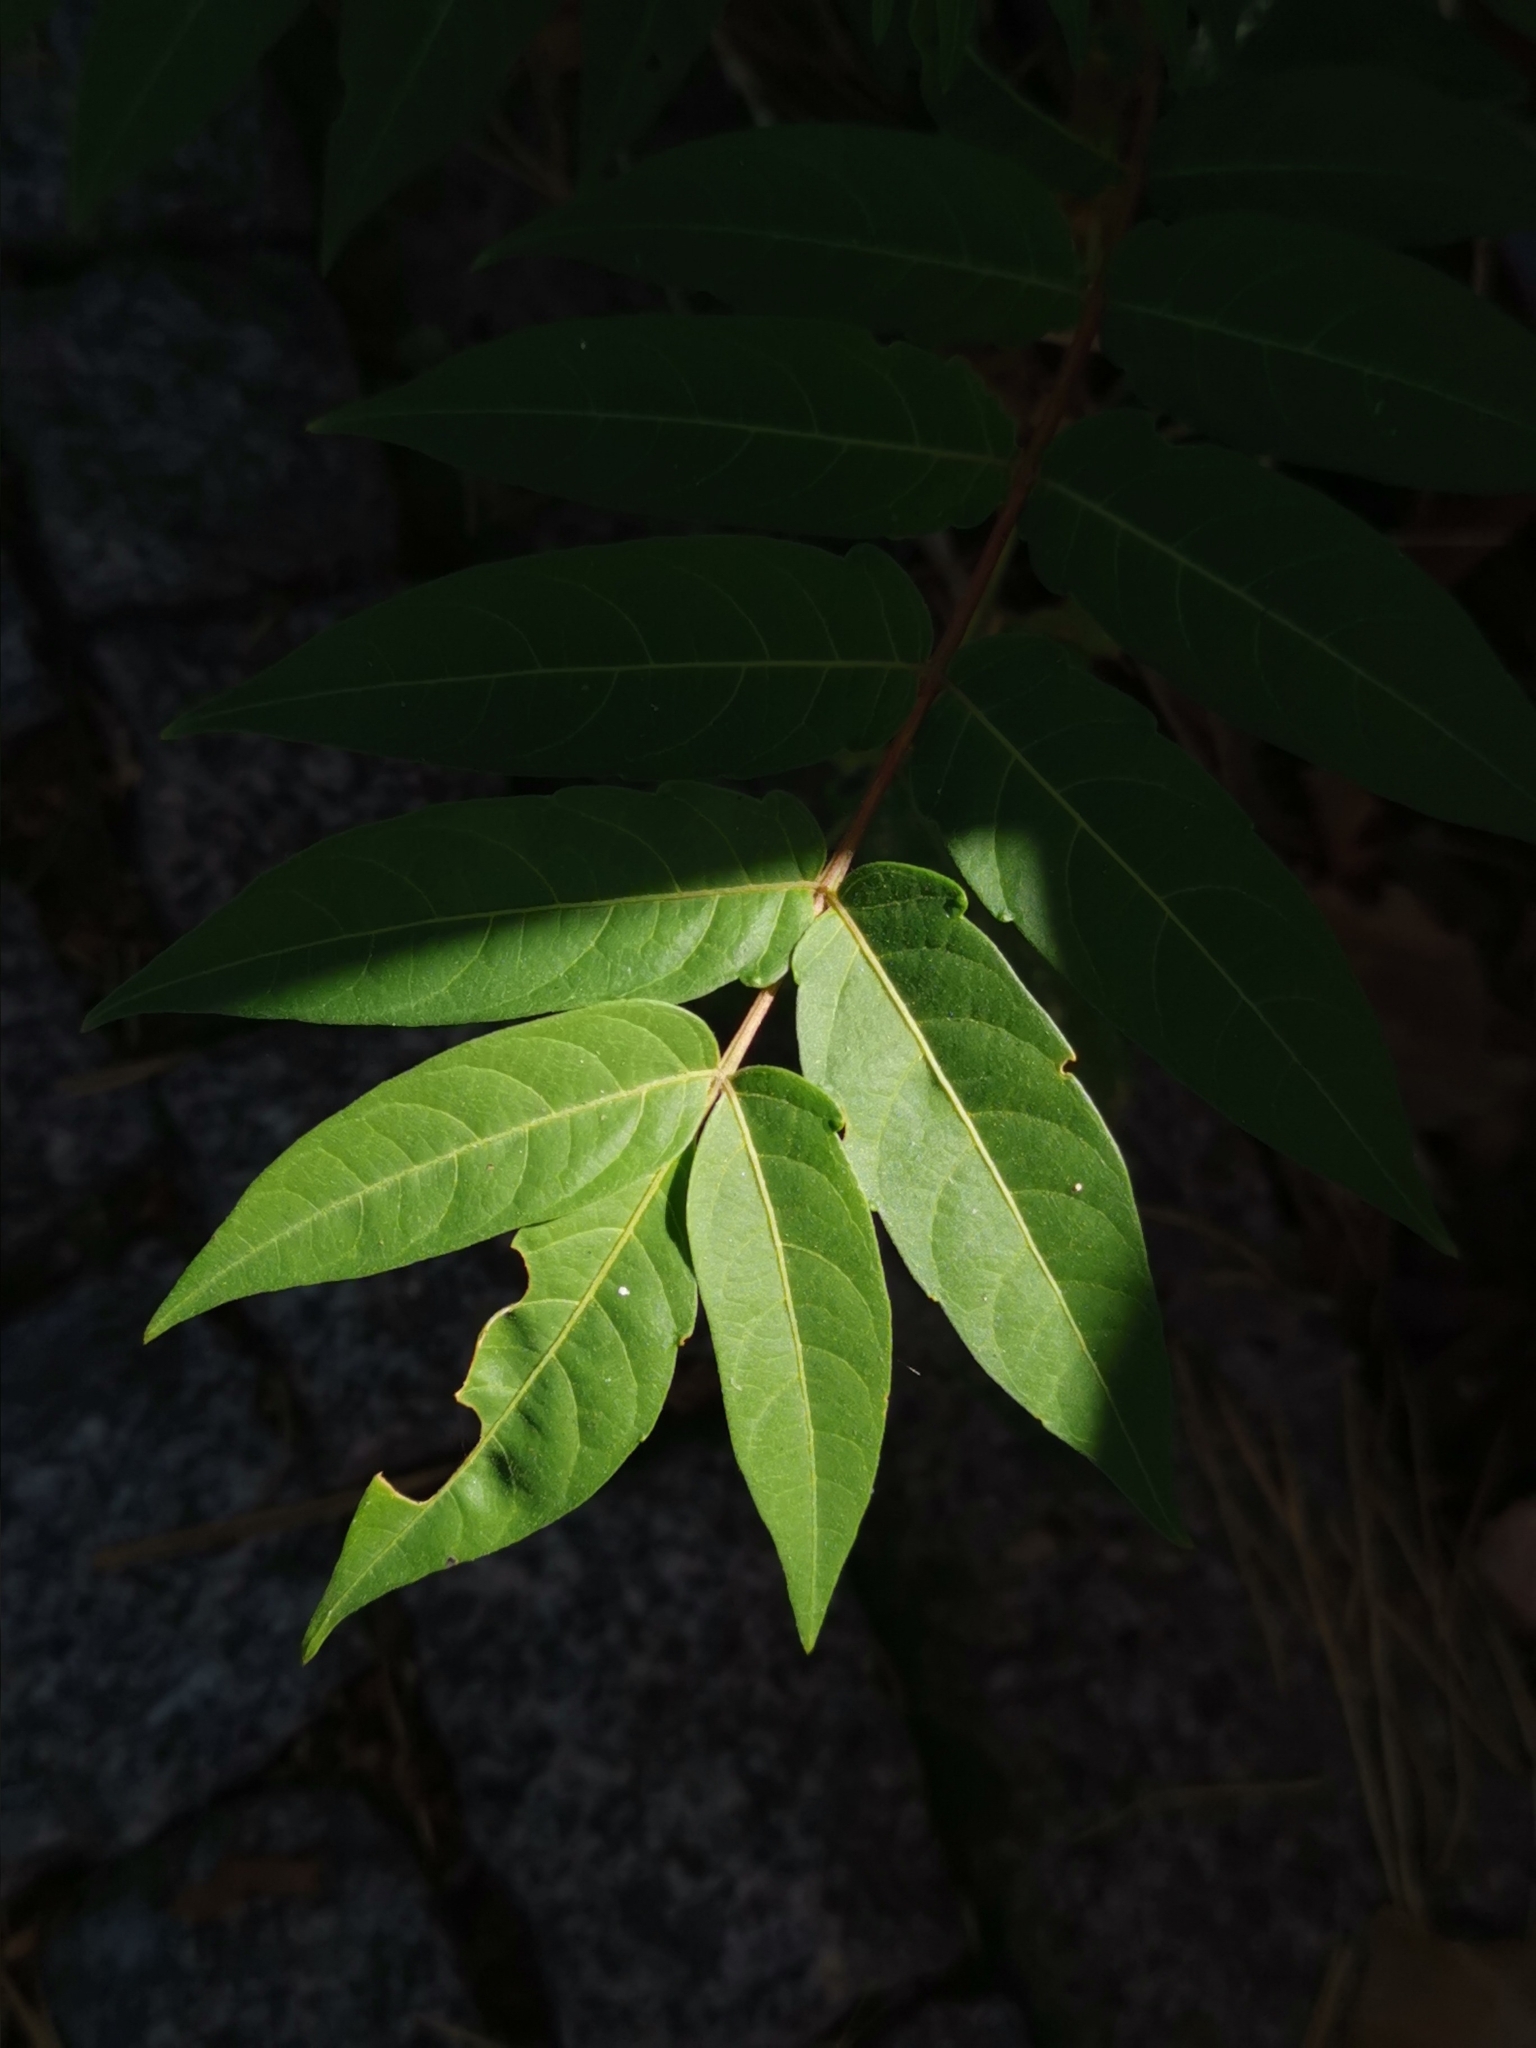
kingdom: Plantae
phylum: Tracheophyta
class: Magnoliopsida
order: Sapindales
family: Simaroubaceae
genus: Ailanthus
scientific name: Ailanthus altissima
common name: Tree-of-heaven
